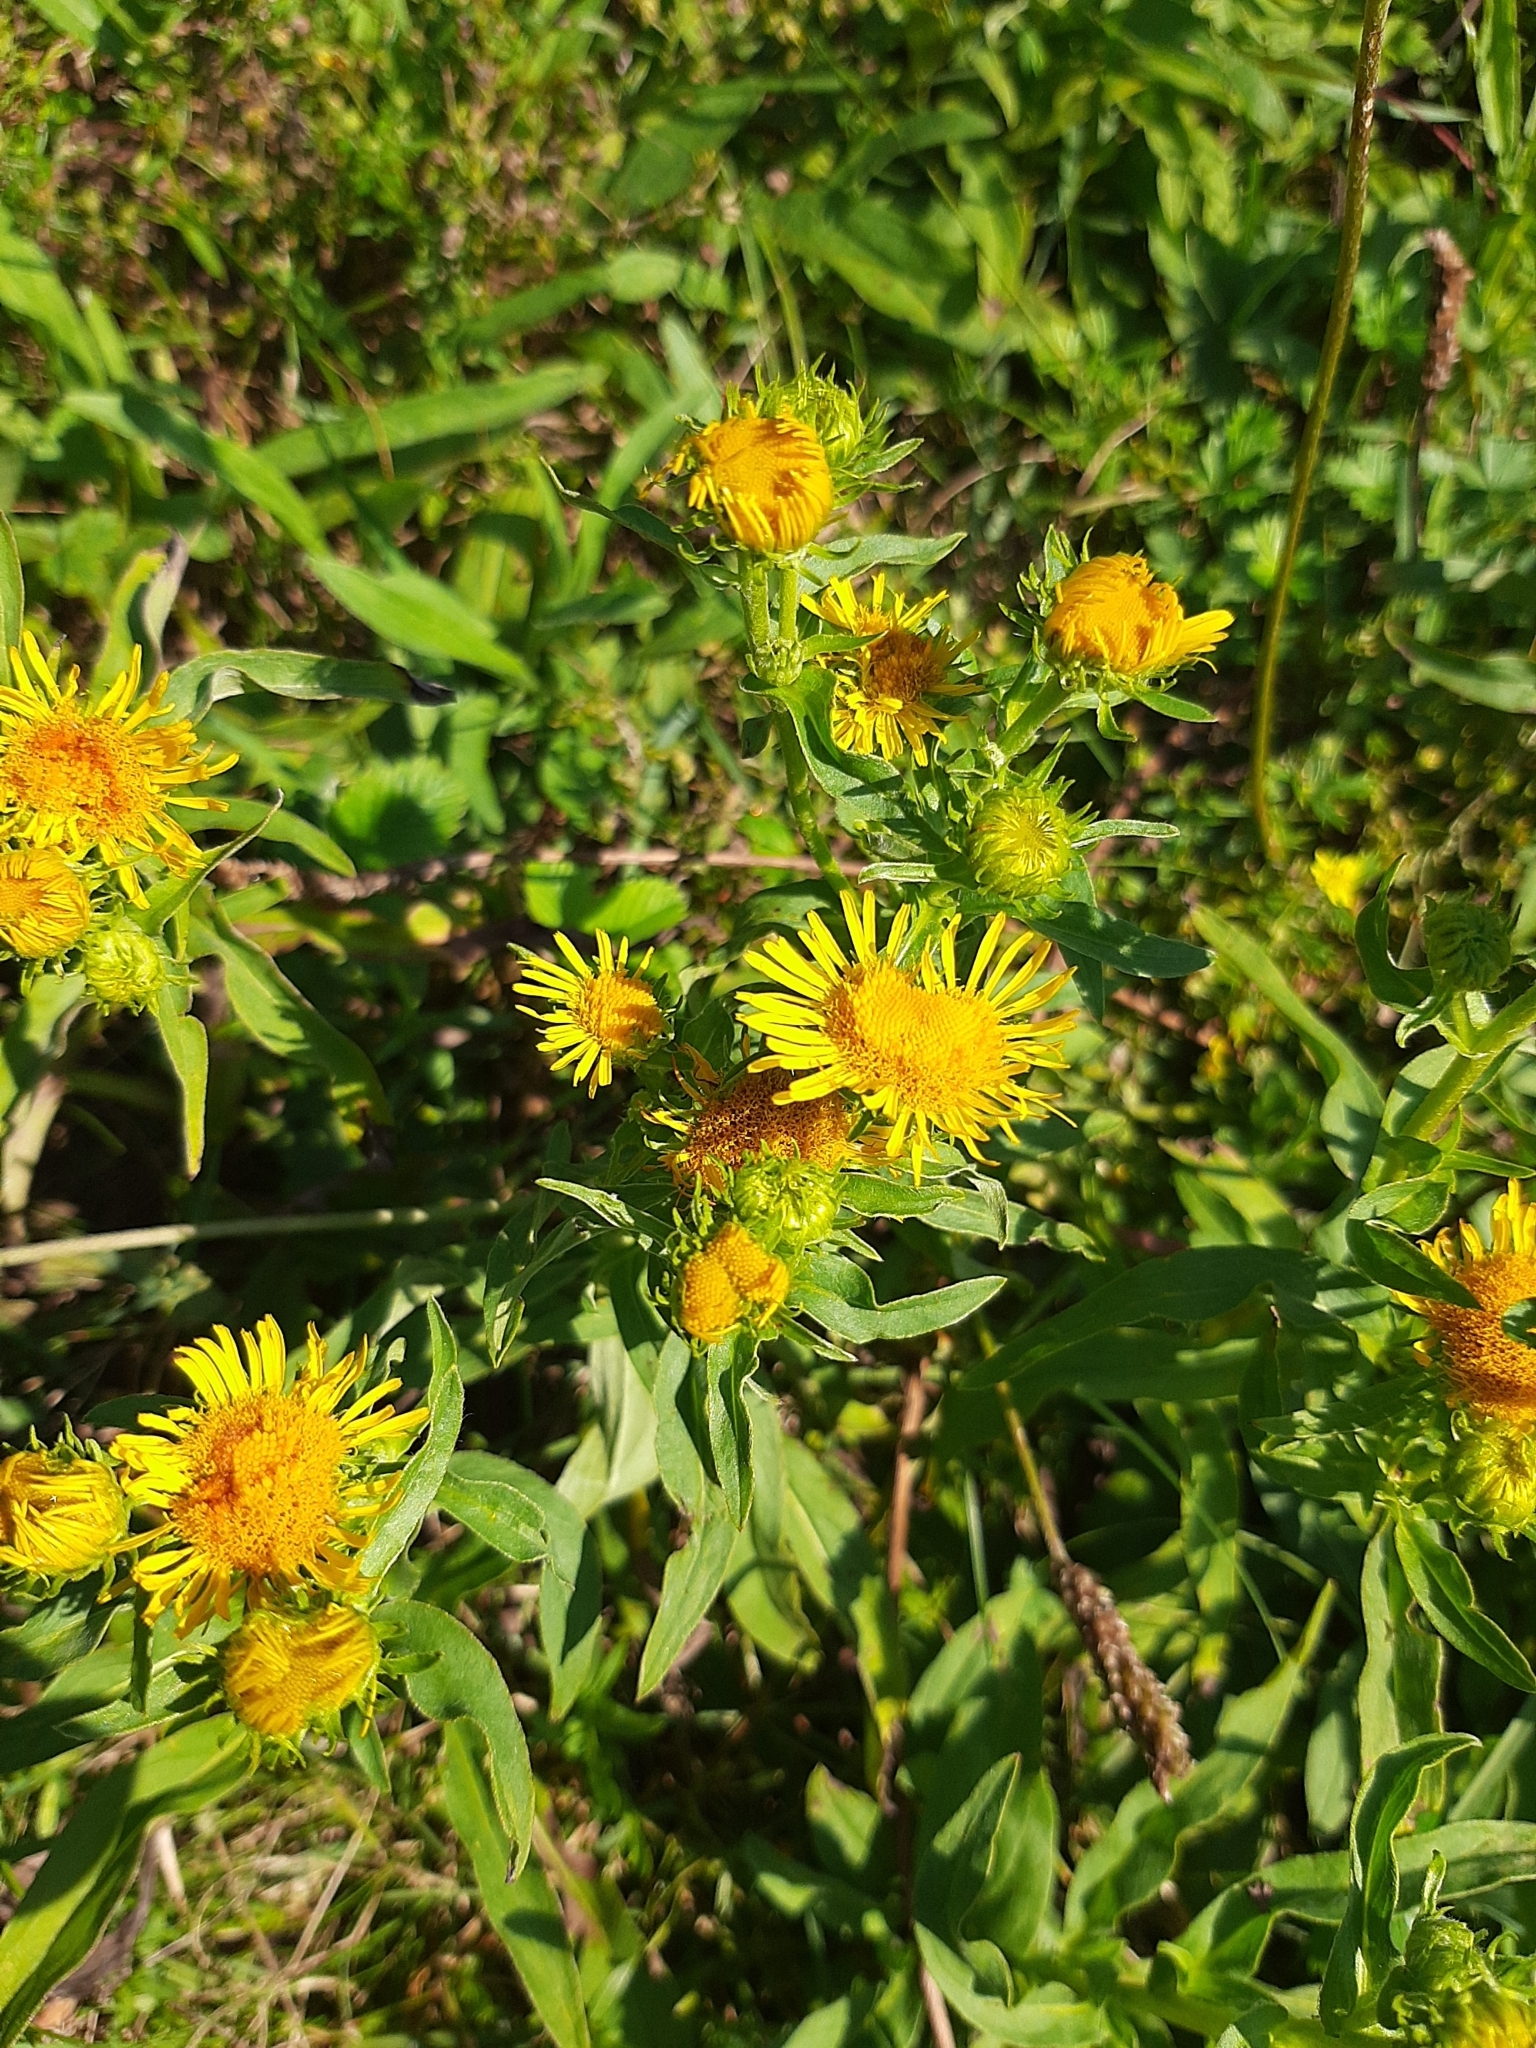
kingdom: Plantae
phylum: Tracheophyta
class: Magnoliopsida
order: Asterales
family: Asteraceae
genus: Pentanema
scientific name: Pentanema britannicum
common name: British elecampane
